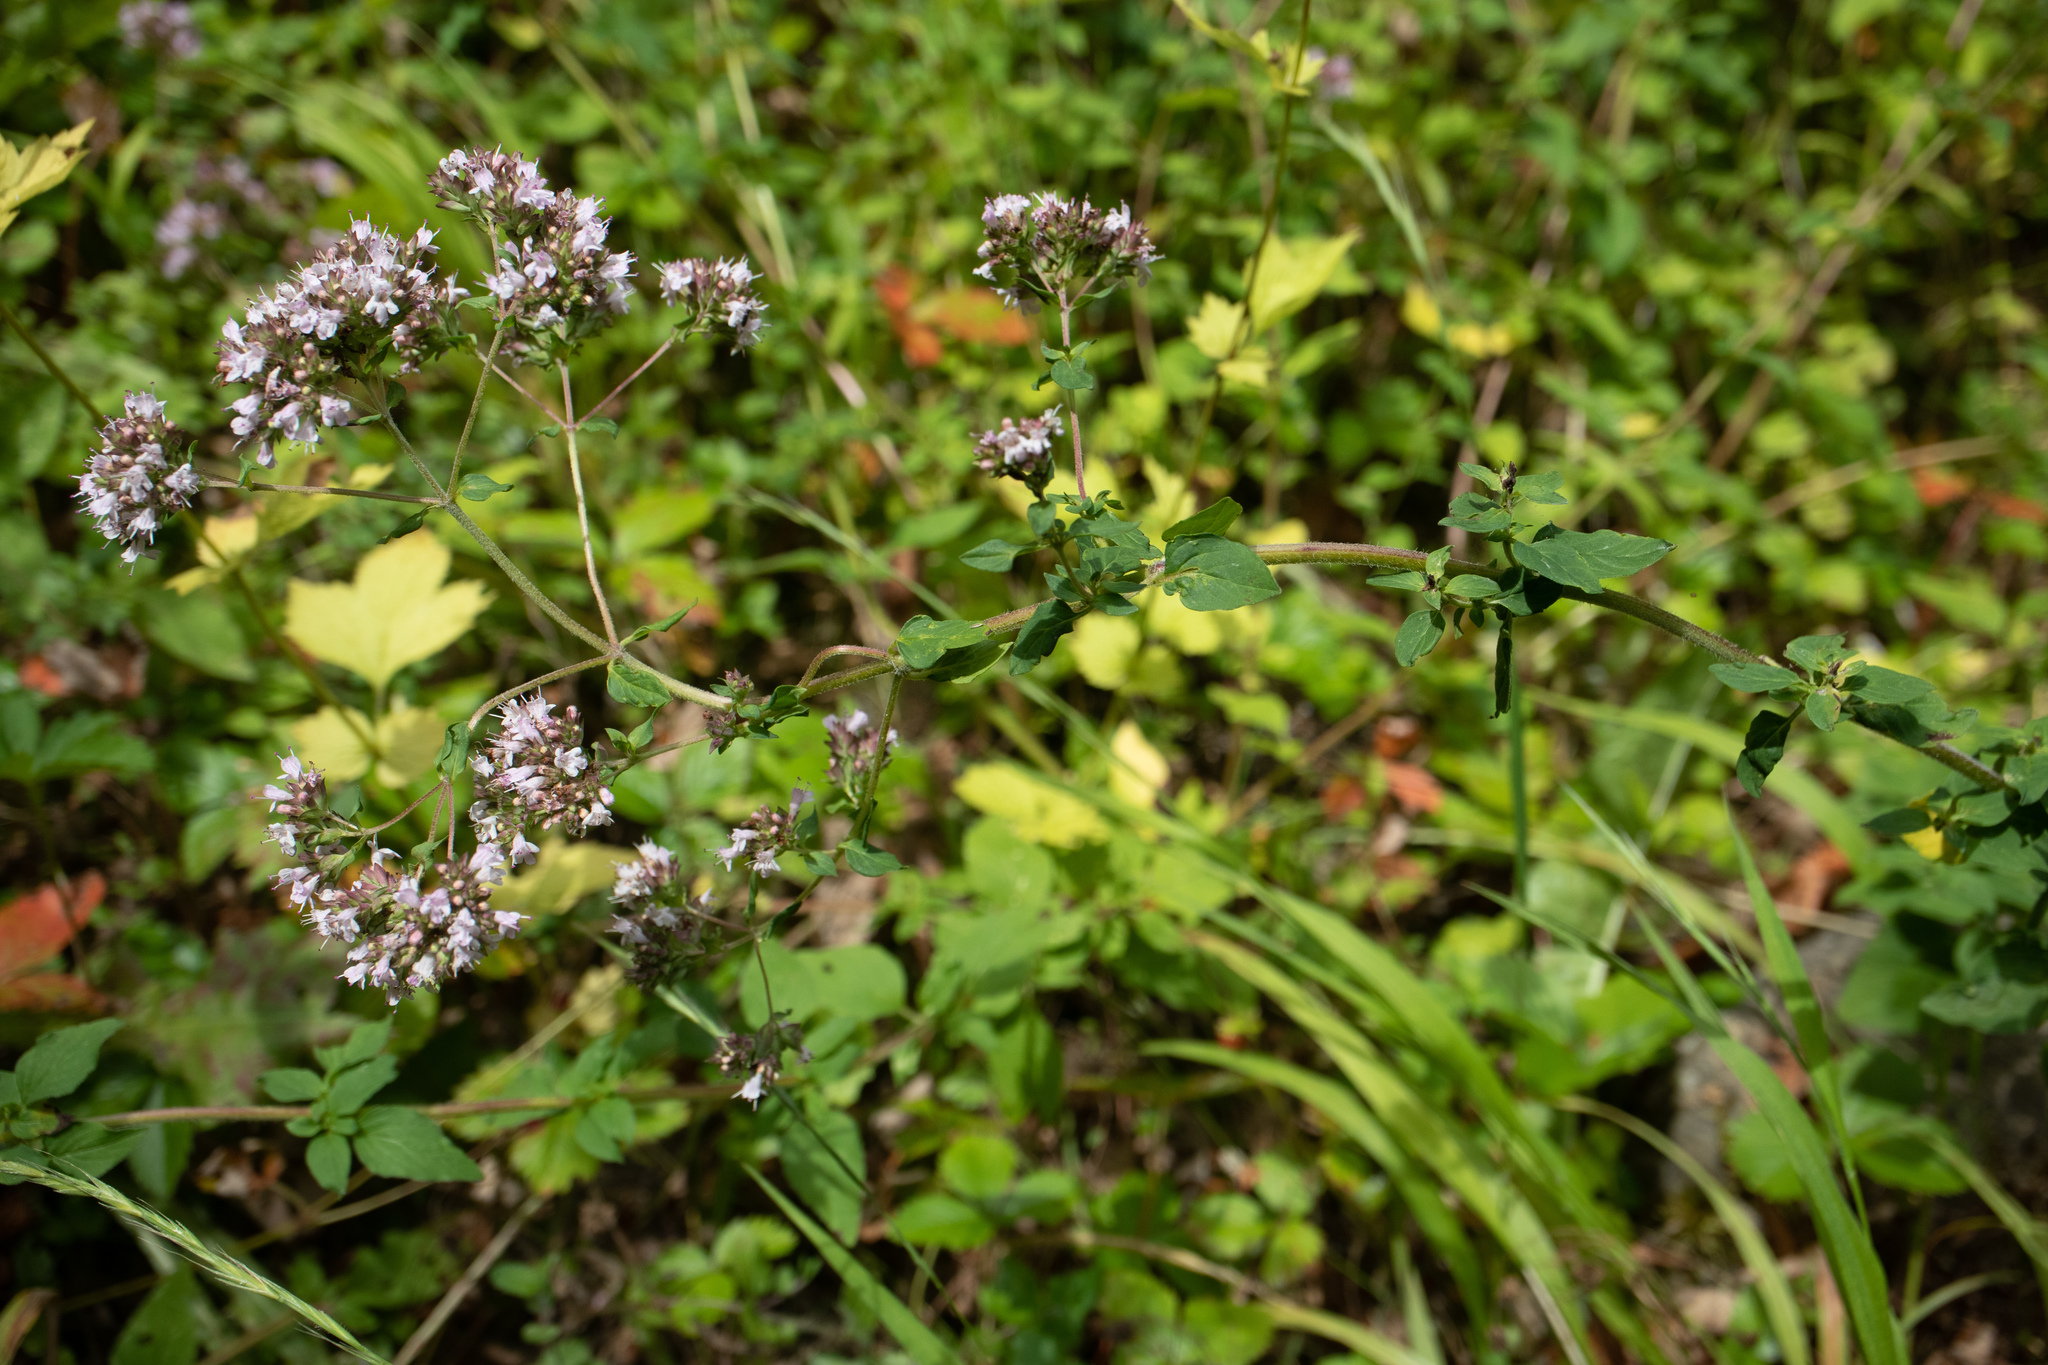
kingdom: Plantae
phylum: Tracheophyta
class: Magnoliopsida
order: Lamiales
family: Lamiaceae
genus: Origanum
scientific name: Origanum vulgare
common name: Wild marjoram
